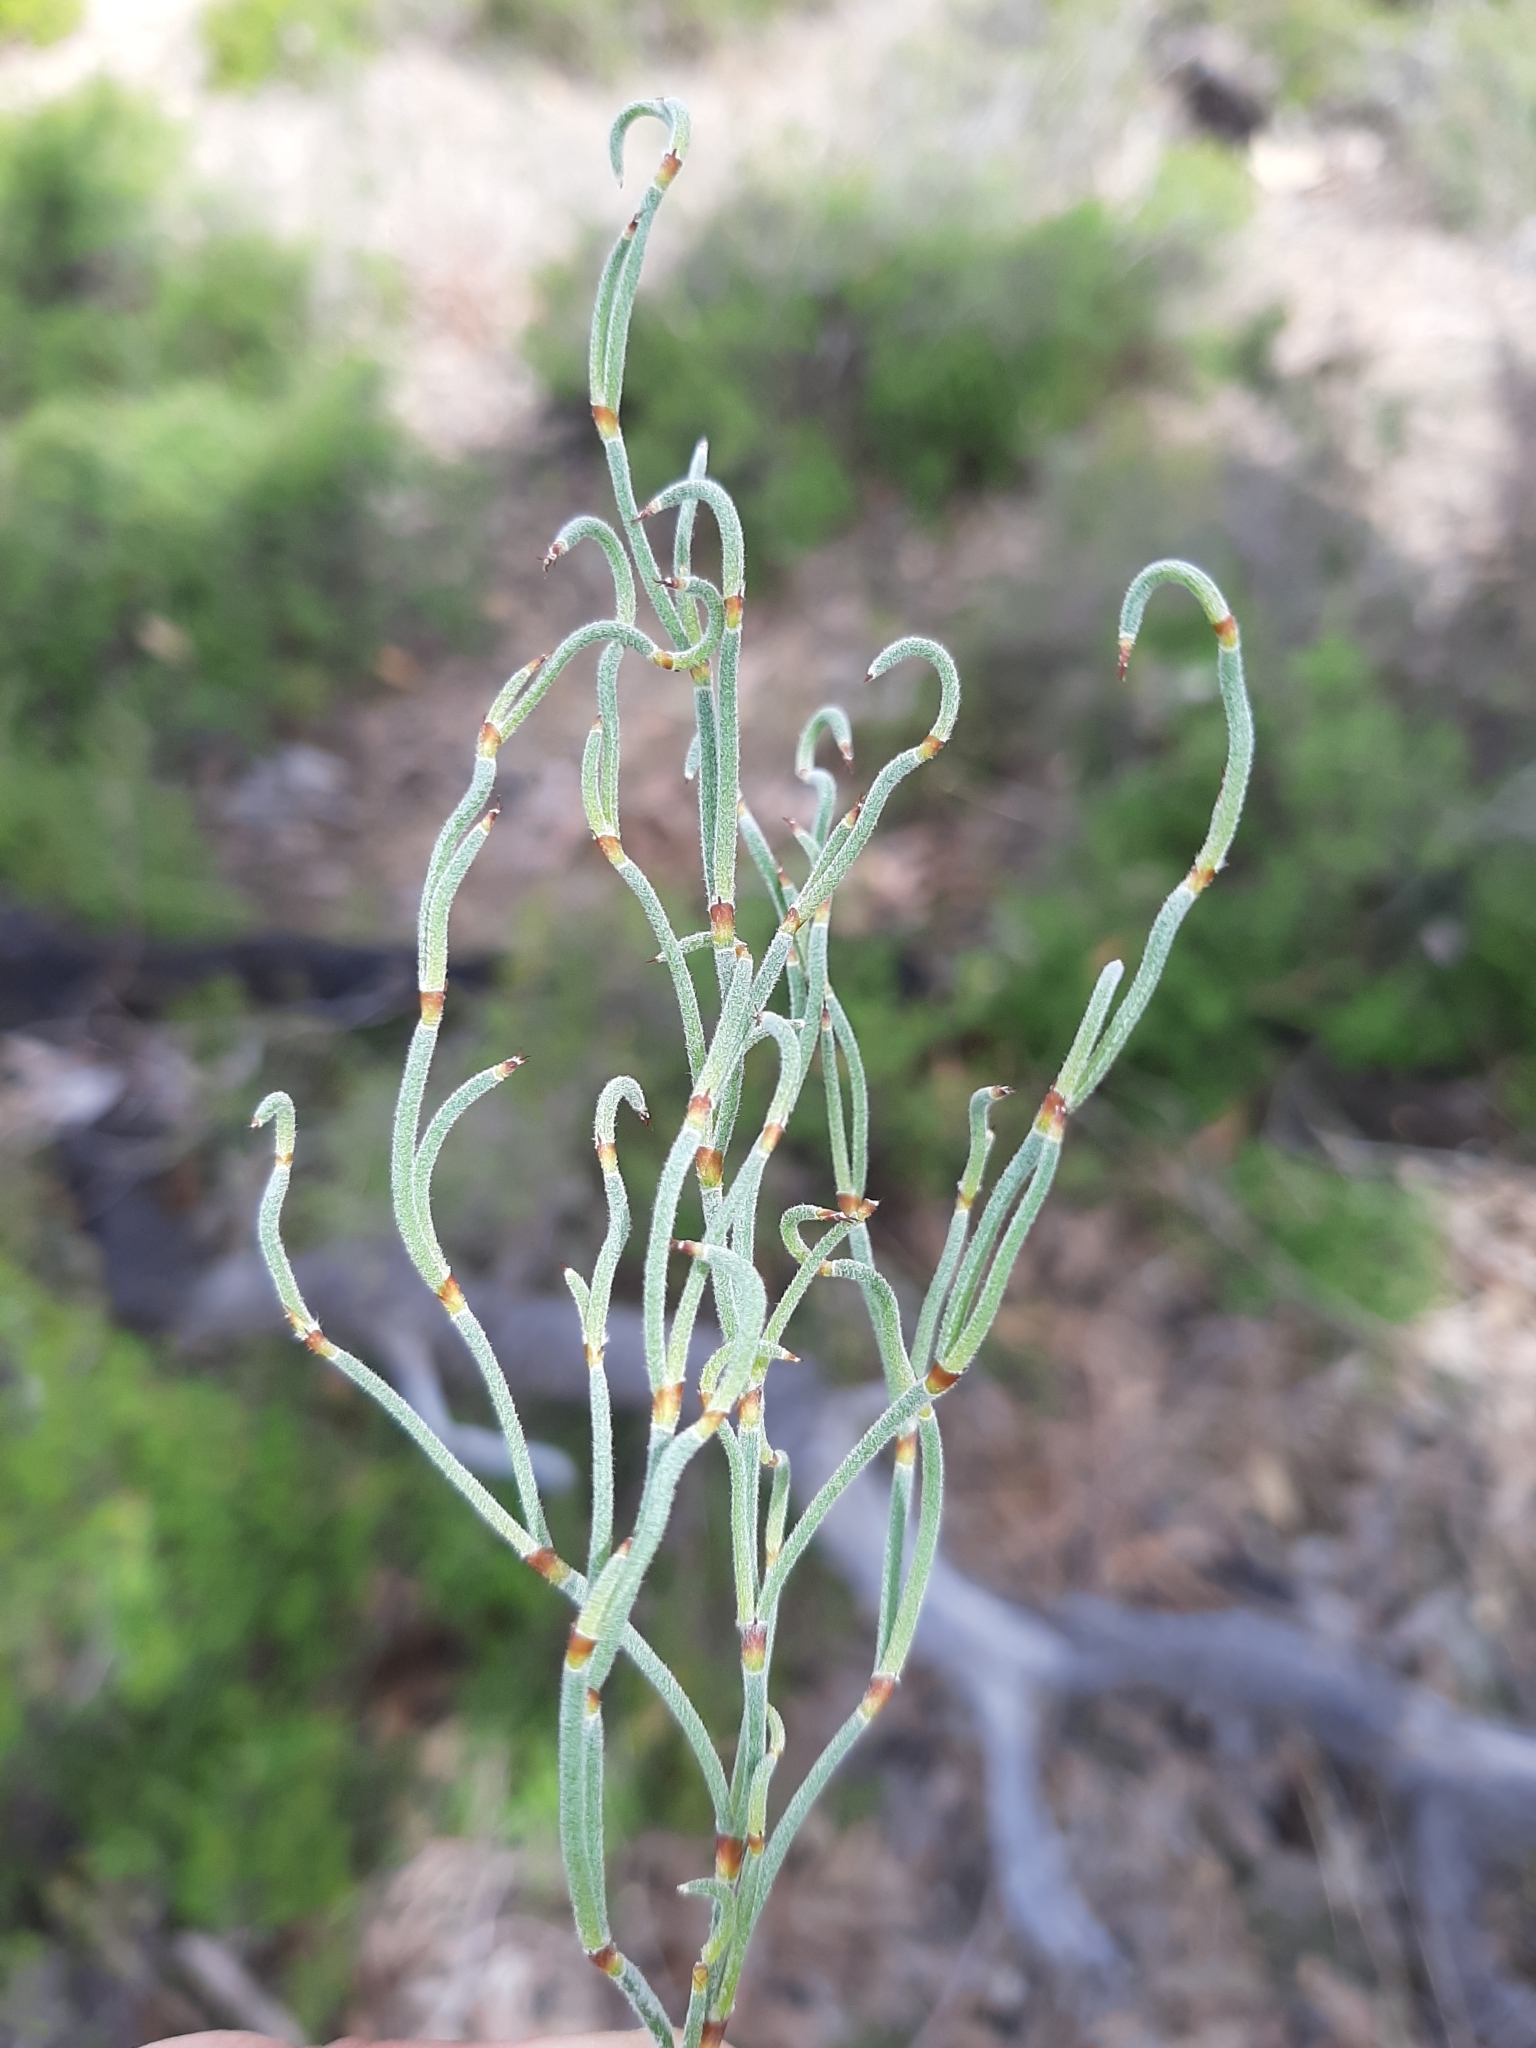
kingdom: Plantae
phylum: Tracheophyta
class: Liliopsida
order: Poales
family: Restionaceae
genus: Alexgeorgea
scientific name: Alexgeorgea nitens
